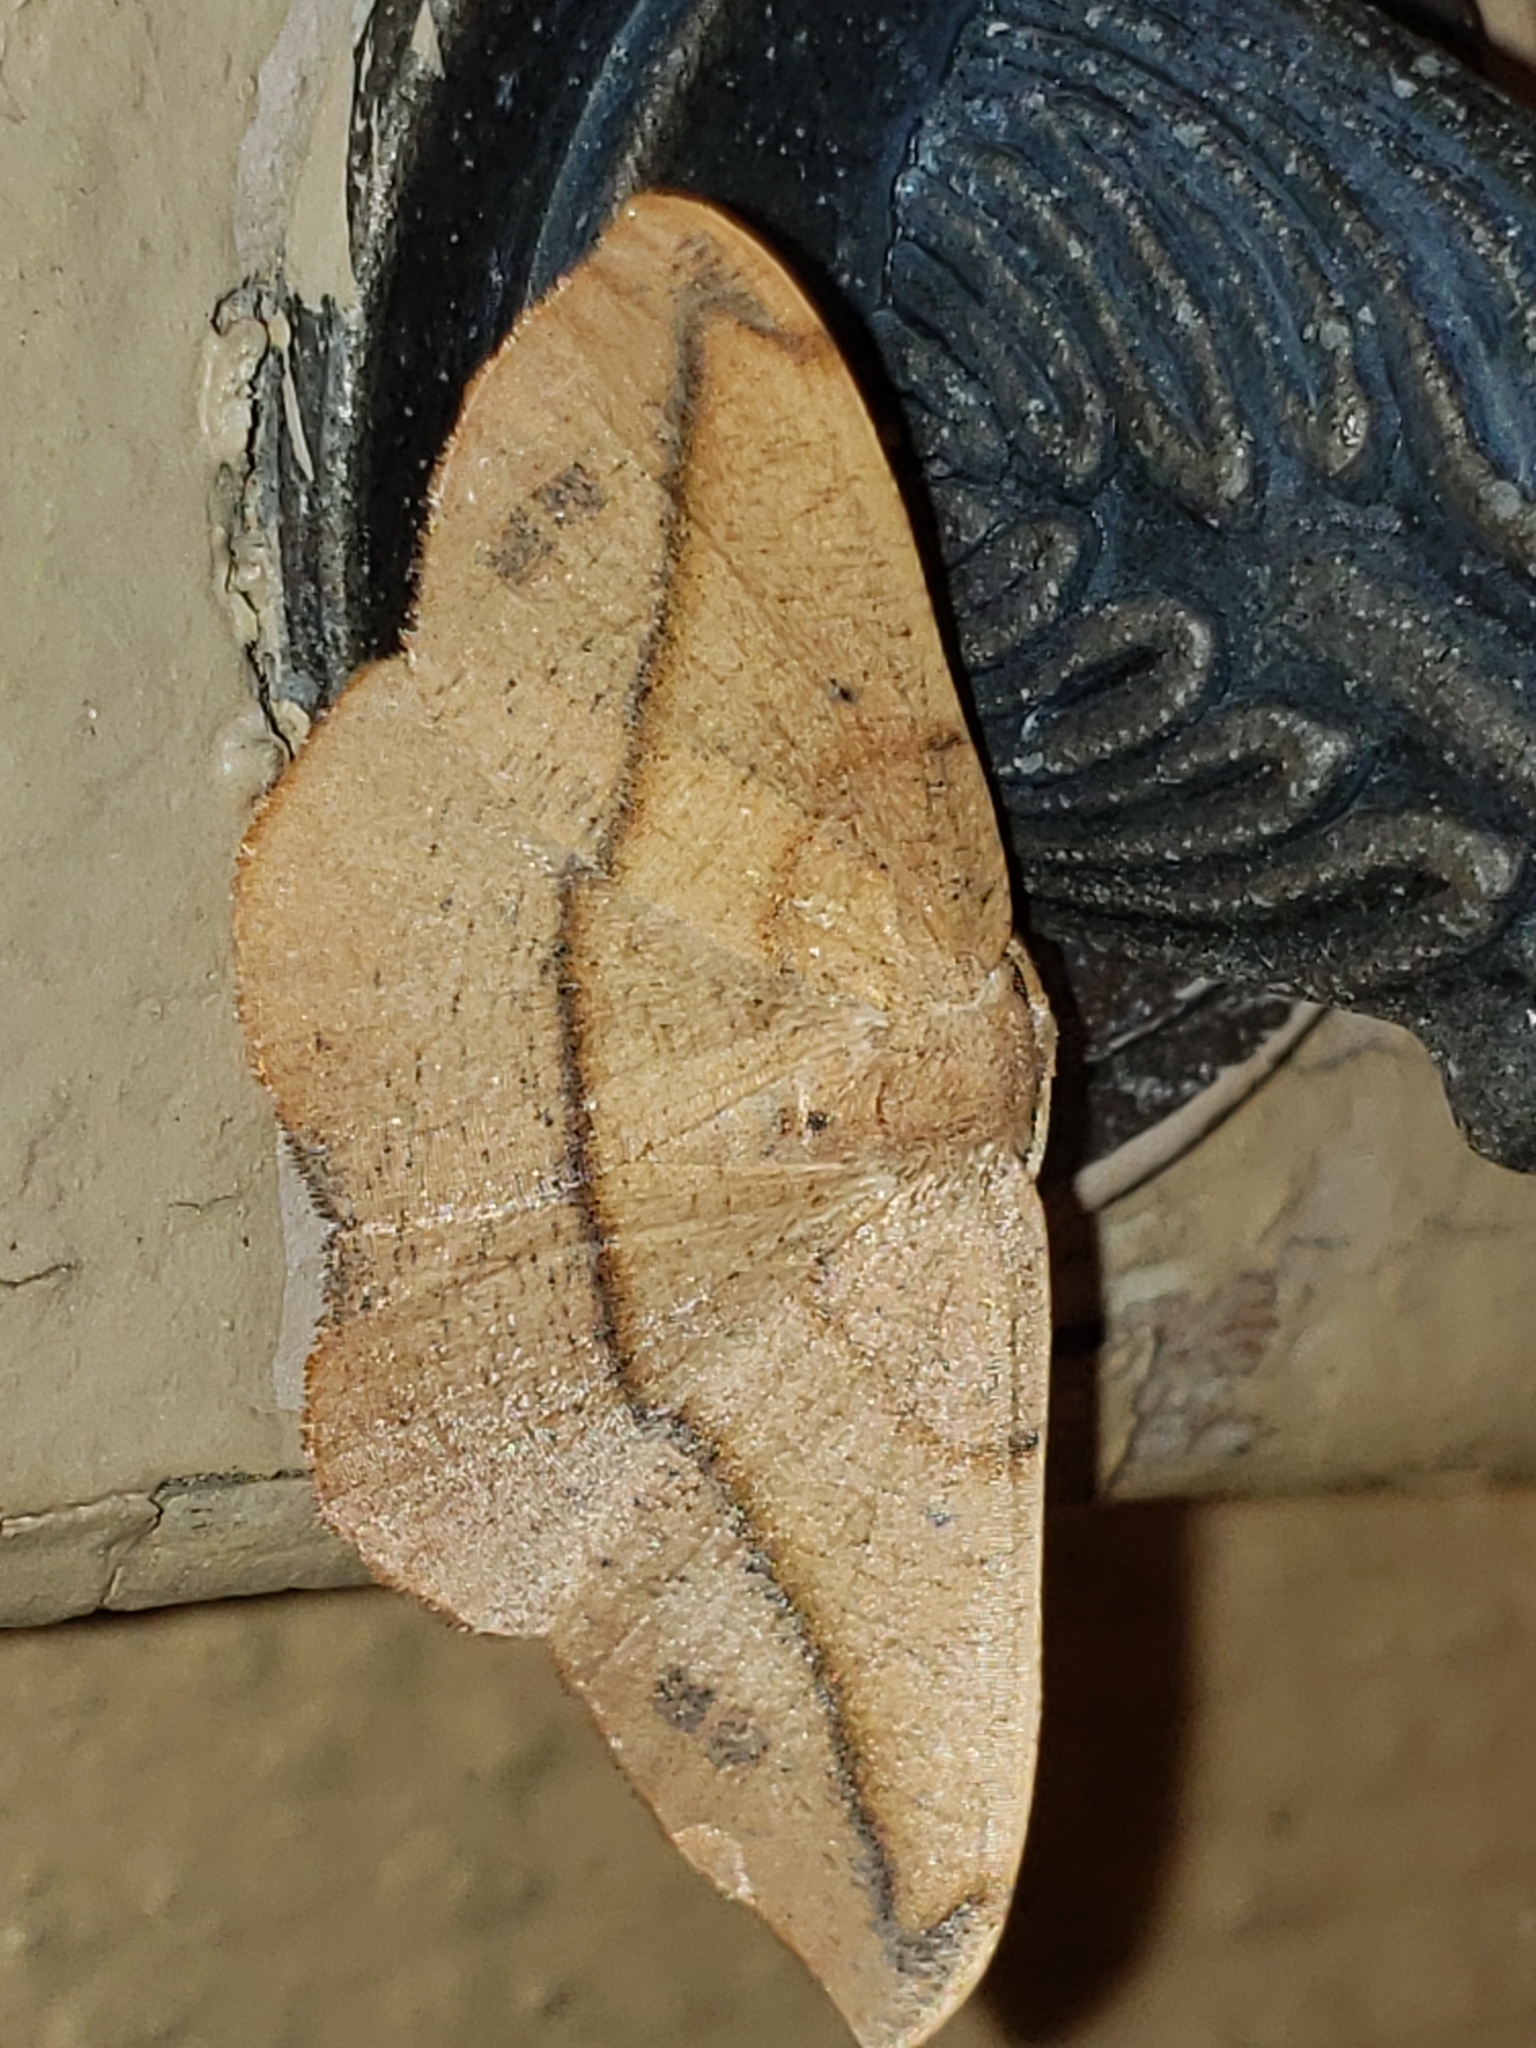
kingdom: Animalia
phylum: Arthropoda
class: Insecta
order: Lepidoptera
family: Geometridae
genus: Patalene
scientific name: Patalene olyzonaria
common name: Juniper geometer moth
